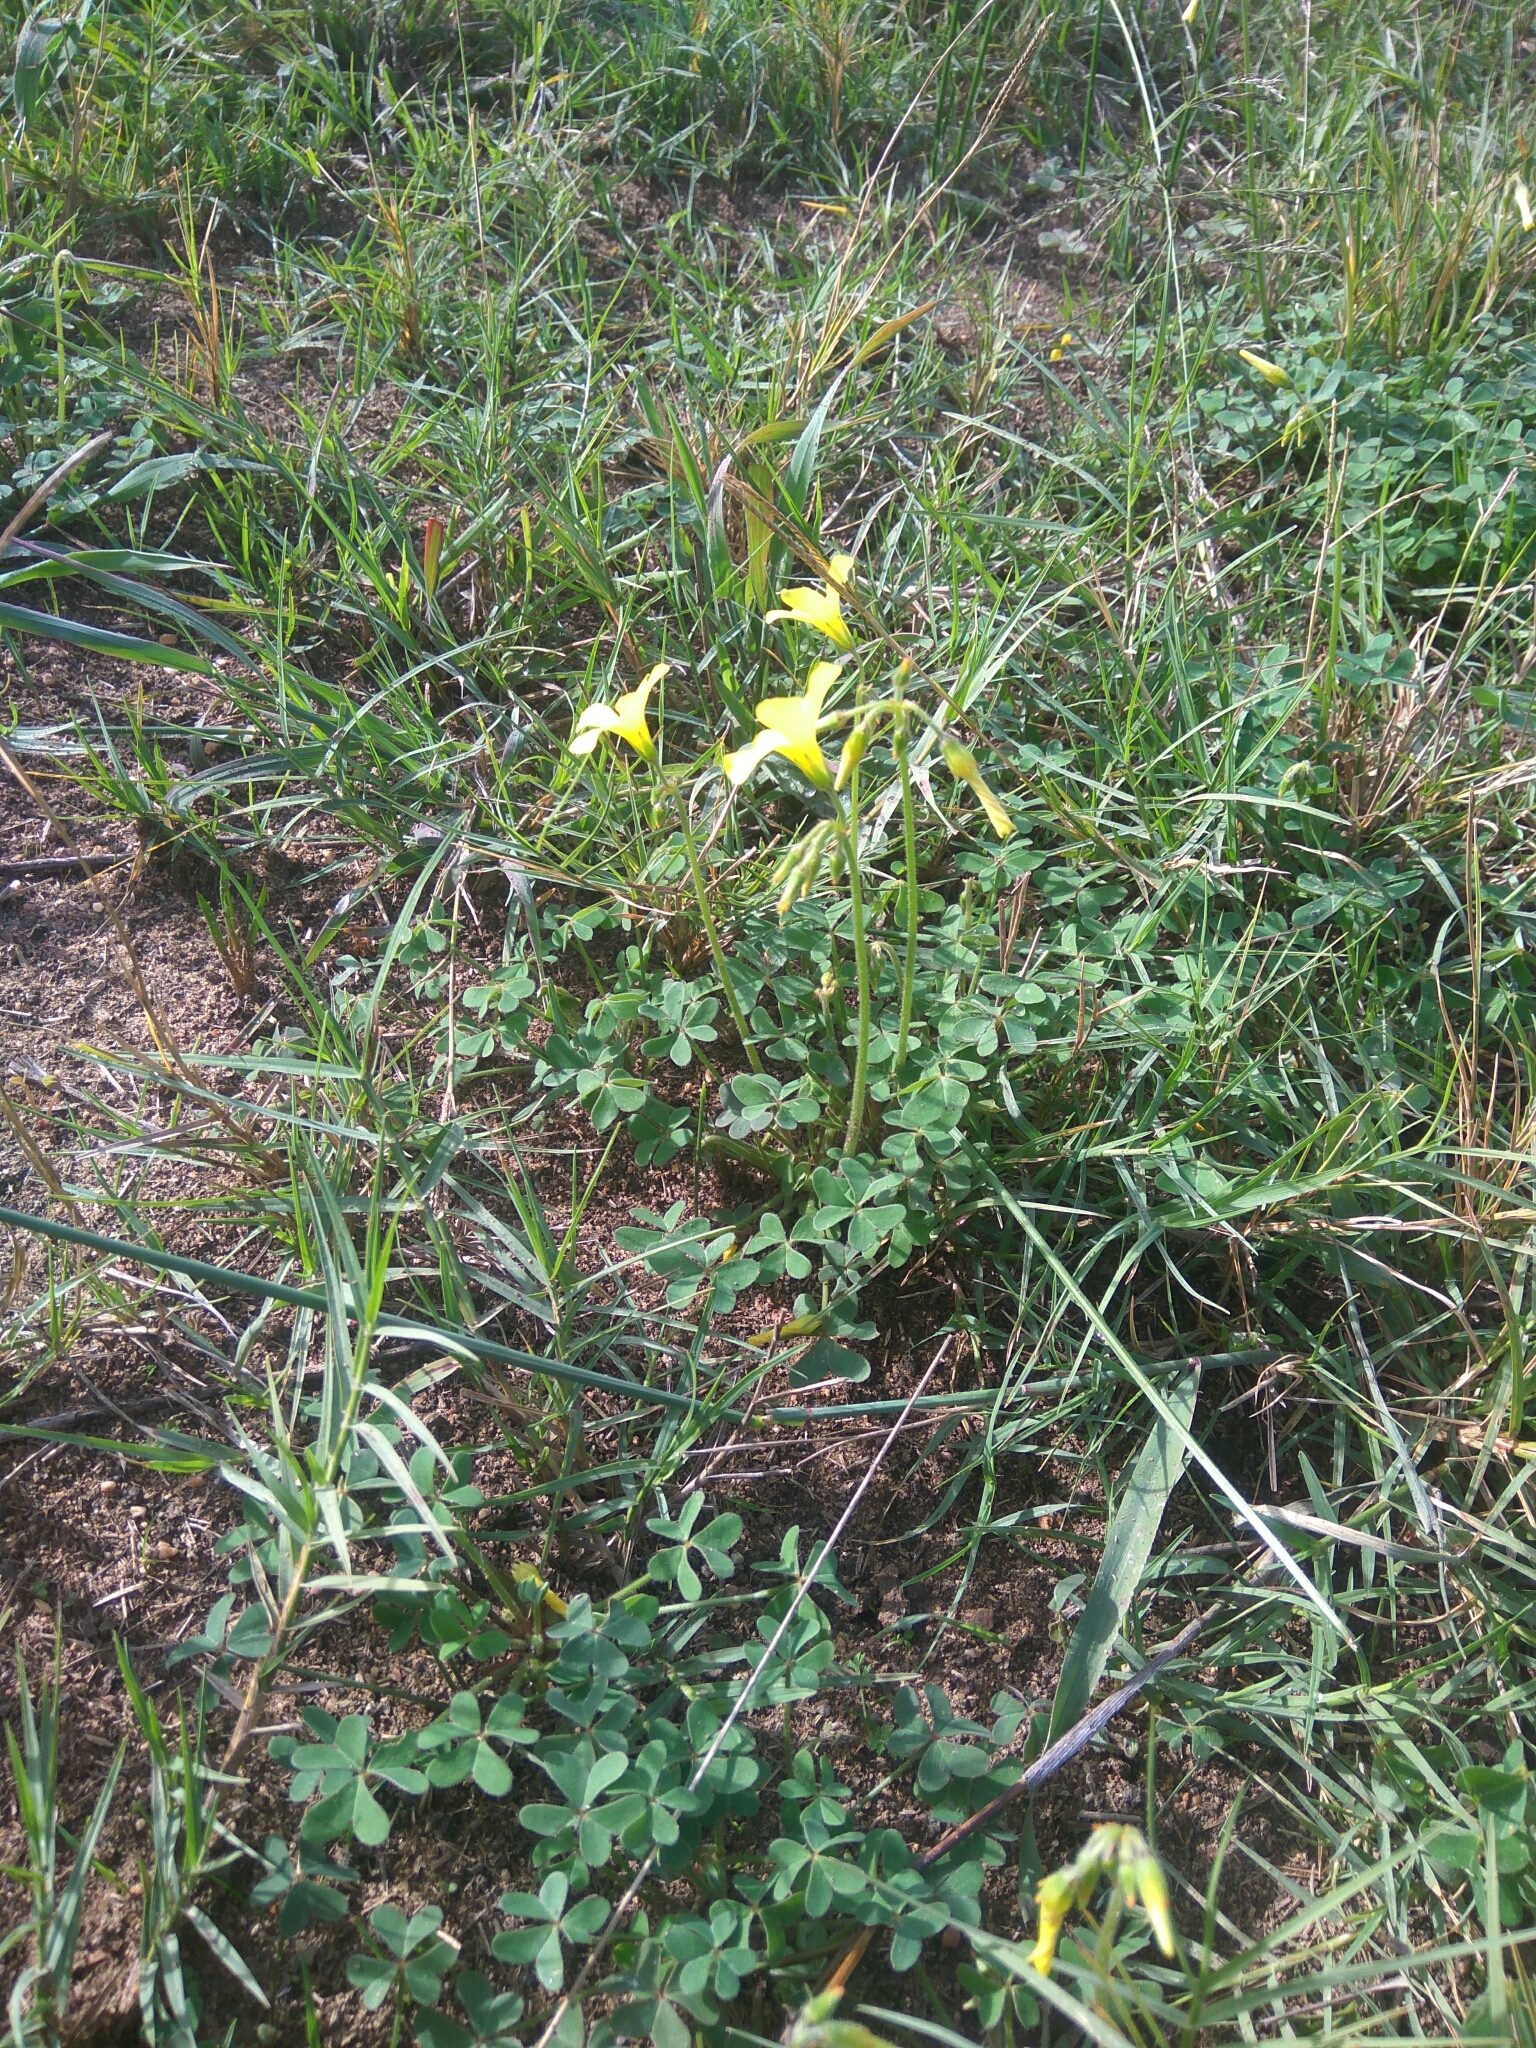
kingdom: Plantae
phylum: Tracheophyta
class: Magnoliopsida
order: Oxalidales
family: Oxalidaceae
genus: Oxalis
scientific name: Oxalis pes-caprae
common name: Bermuda-buttercup
